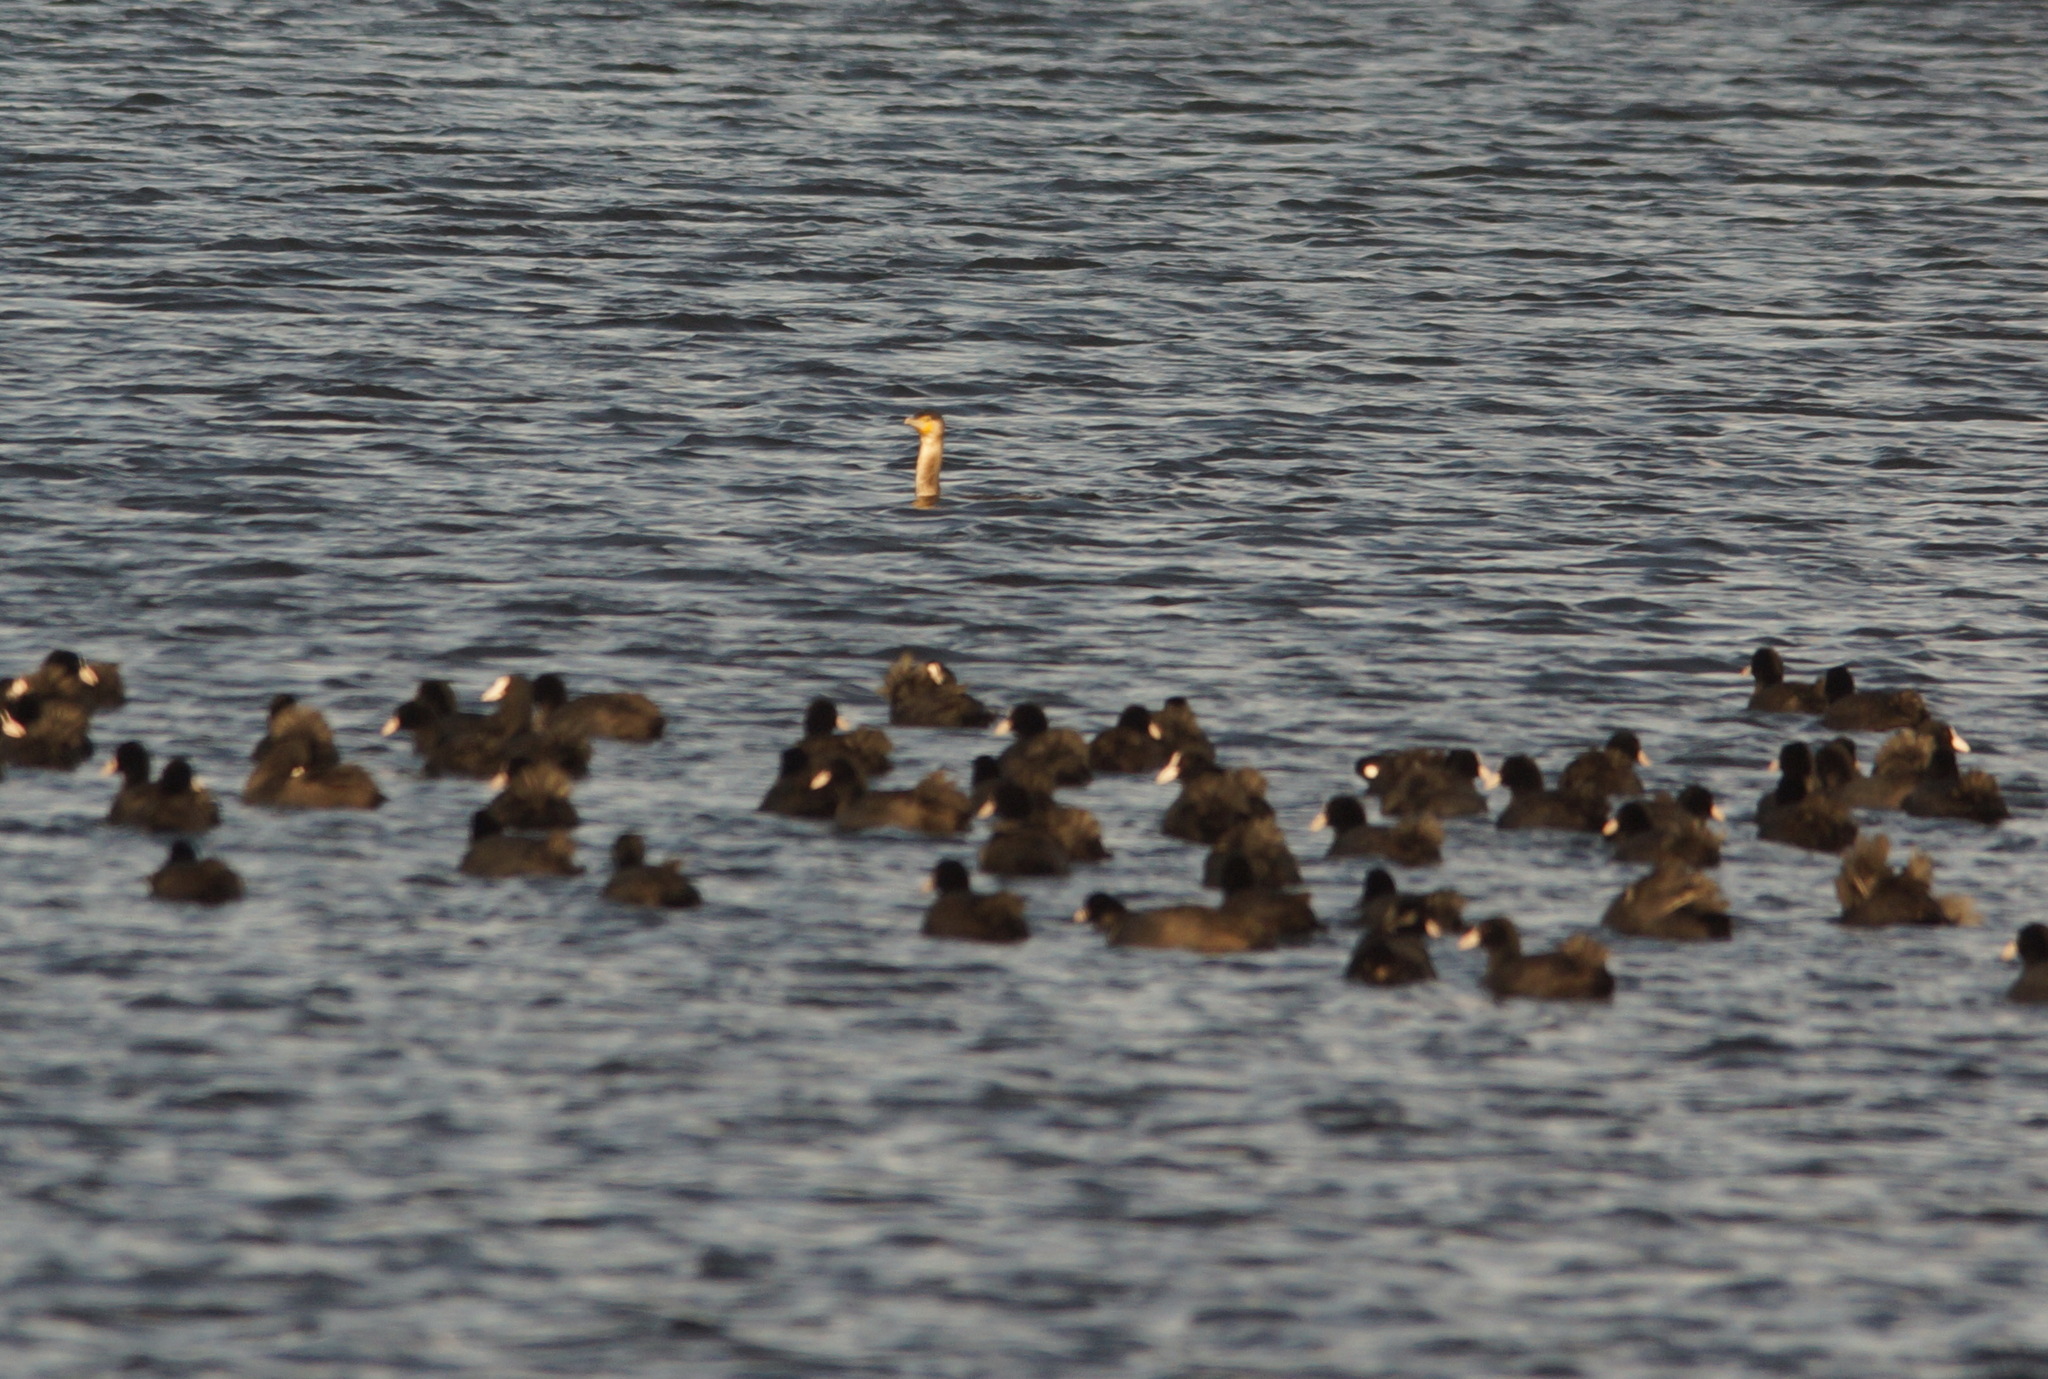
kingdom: Animalia
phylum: Chordata
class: Aves
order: Suliformes
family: Phalacrocoracidae
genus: Phalacrocorax
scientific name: Phalacrocorax carbo
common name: Great cormorant
